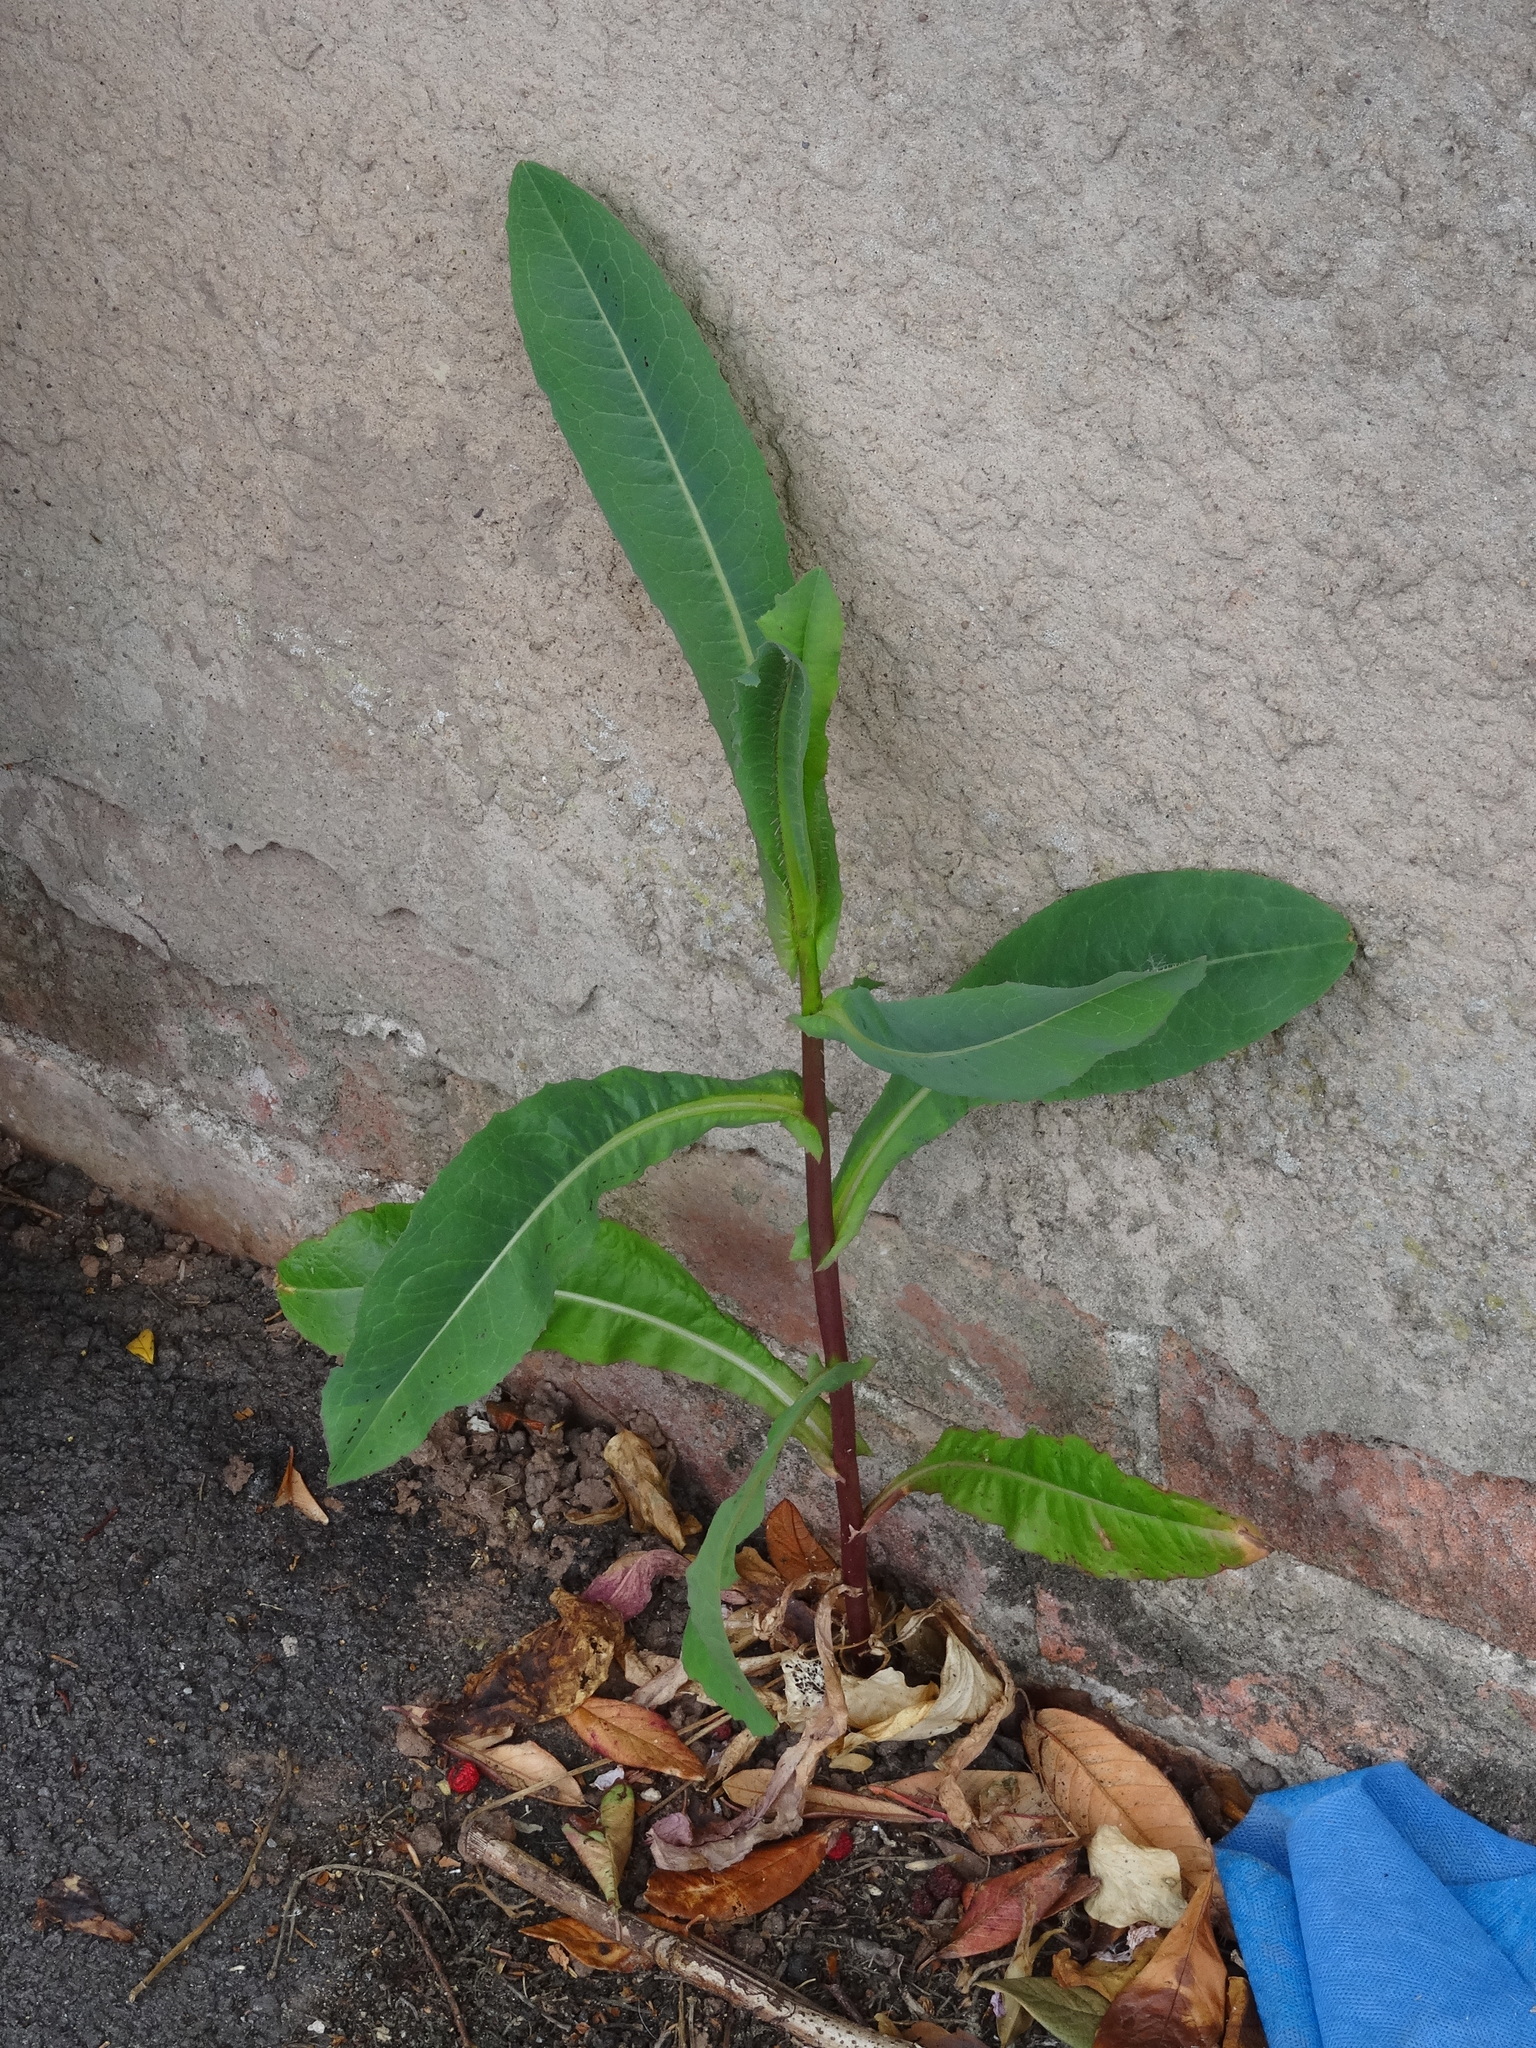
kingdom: Plantae
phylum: Tracheophyta
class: Magnoliopsida
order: Asterales
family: Asteraceae
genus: Lactuca
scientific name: Lactuca serriola
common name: Prickly lettuce
